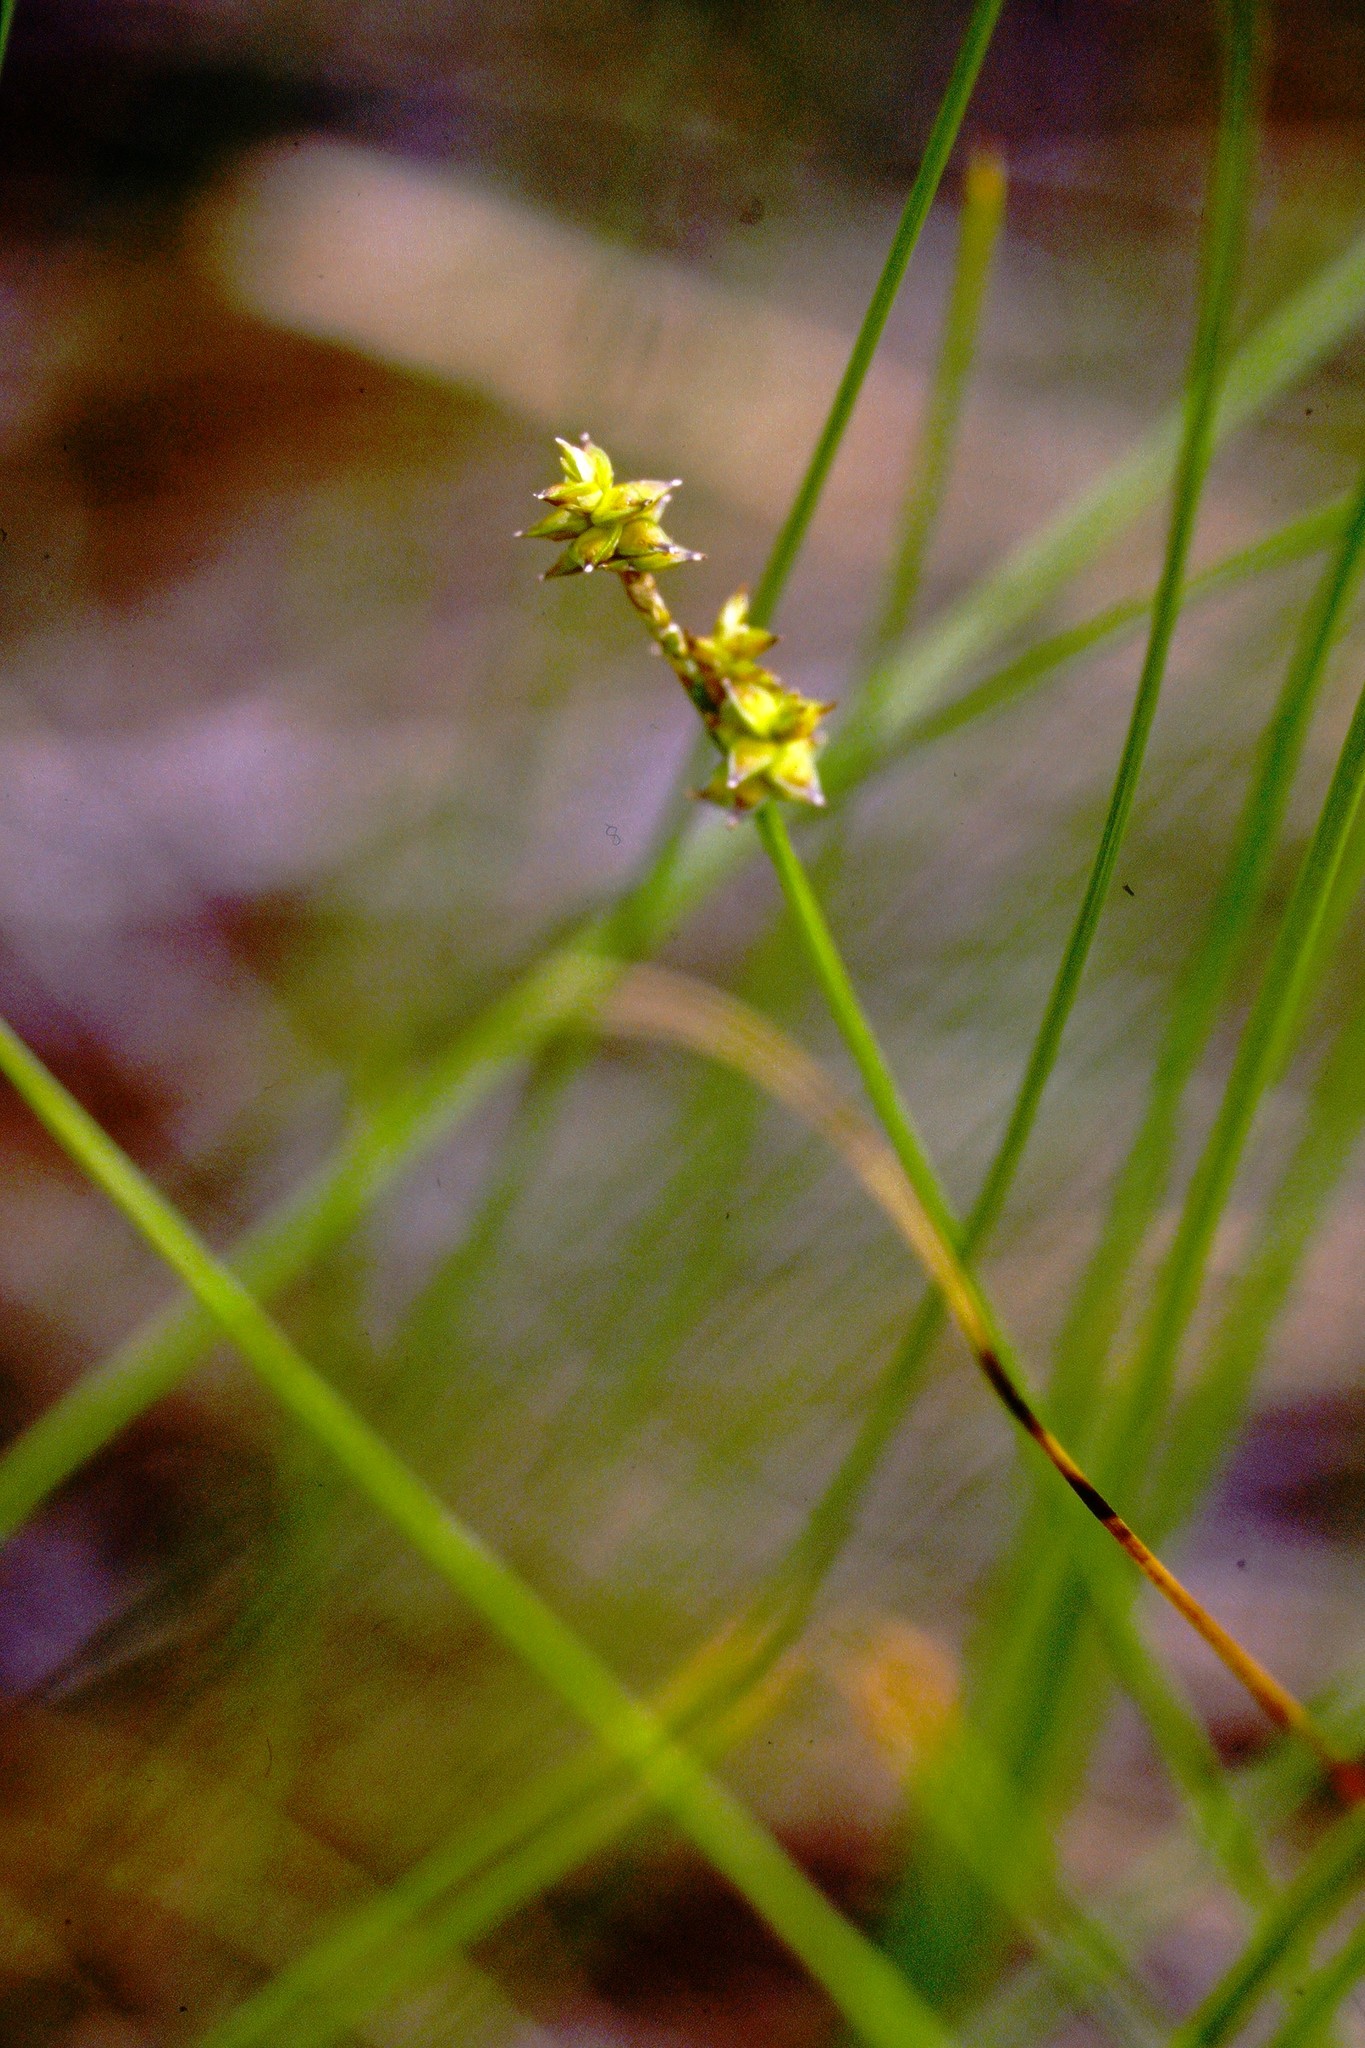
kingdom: Plantae
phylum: Tracheophyta
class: Liliopsida
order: Poales
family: Cyperaceae
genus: Carex
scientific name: Carex interior
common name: Inland sedge
